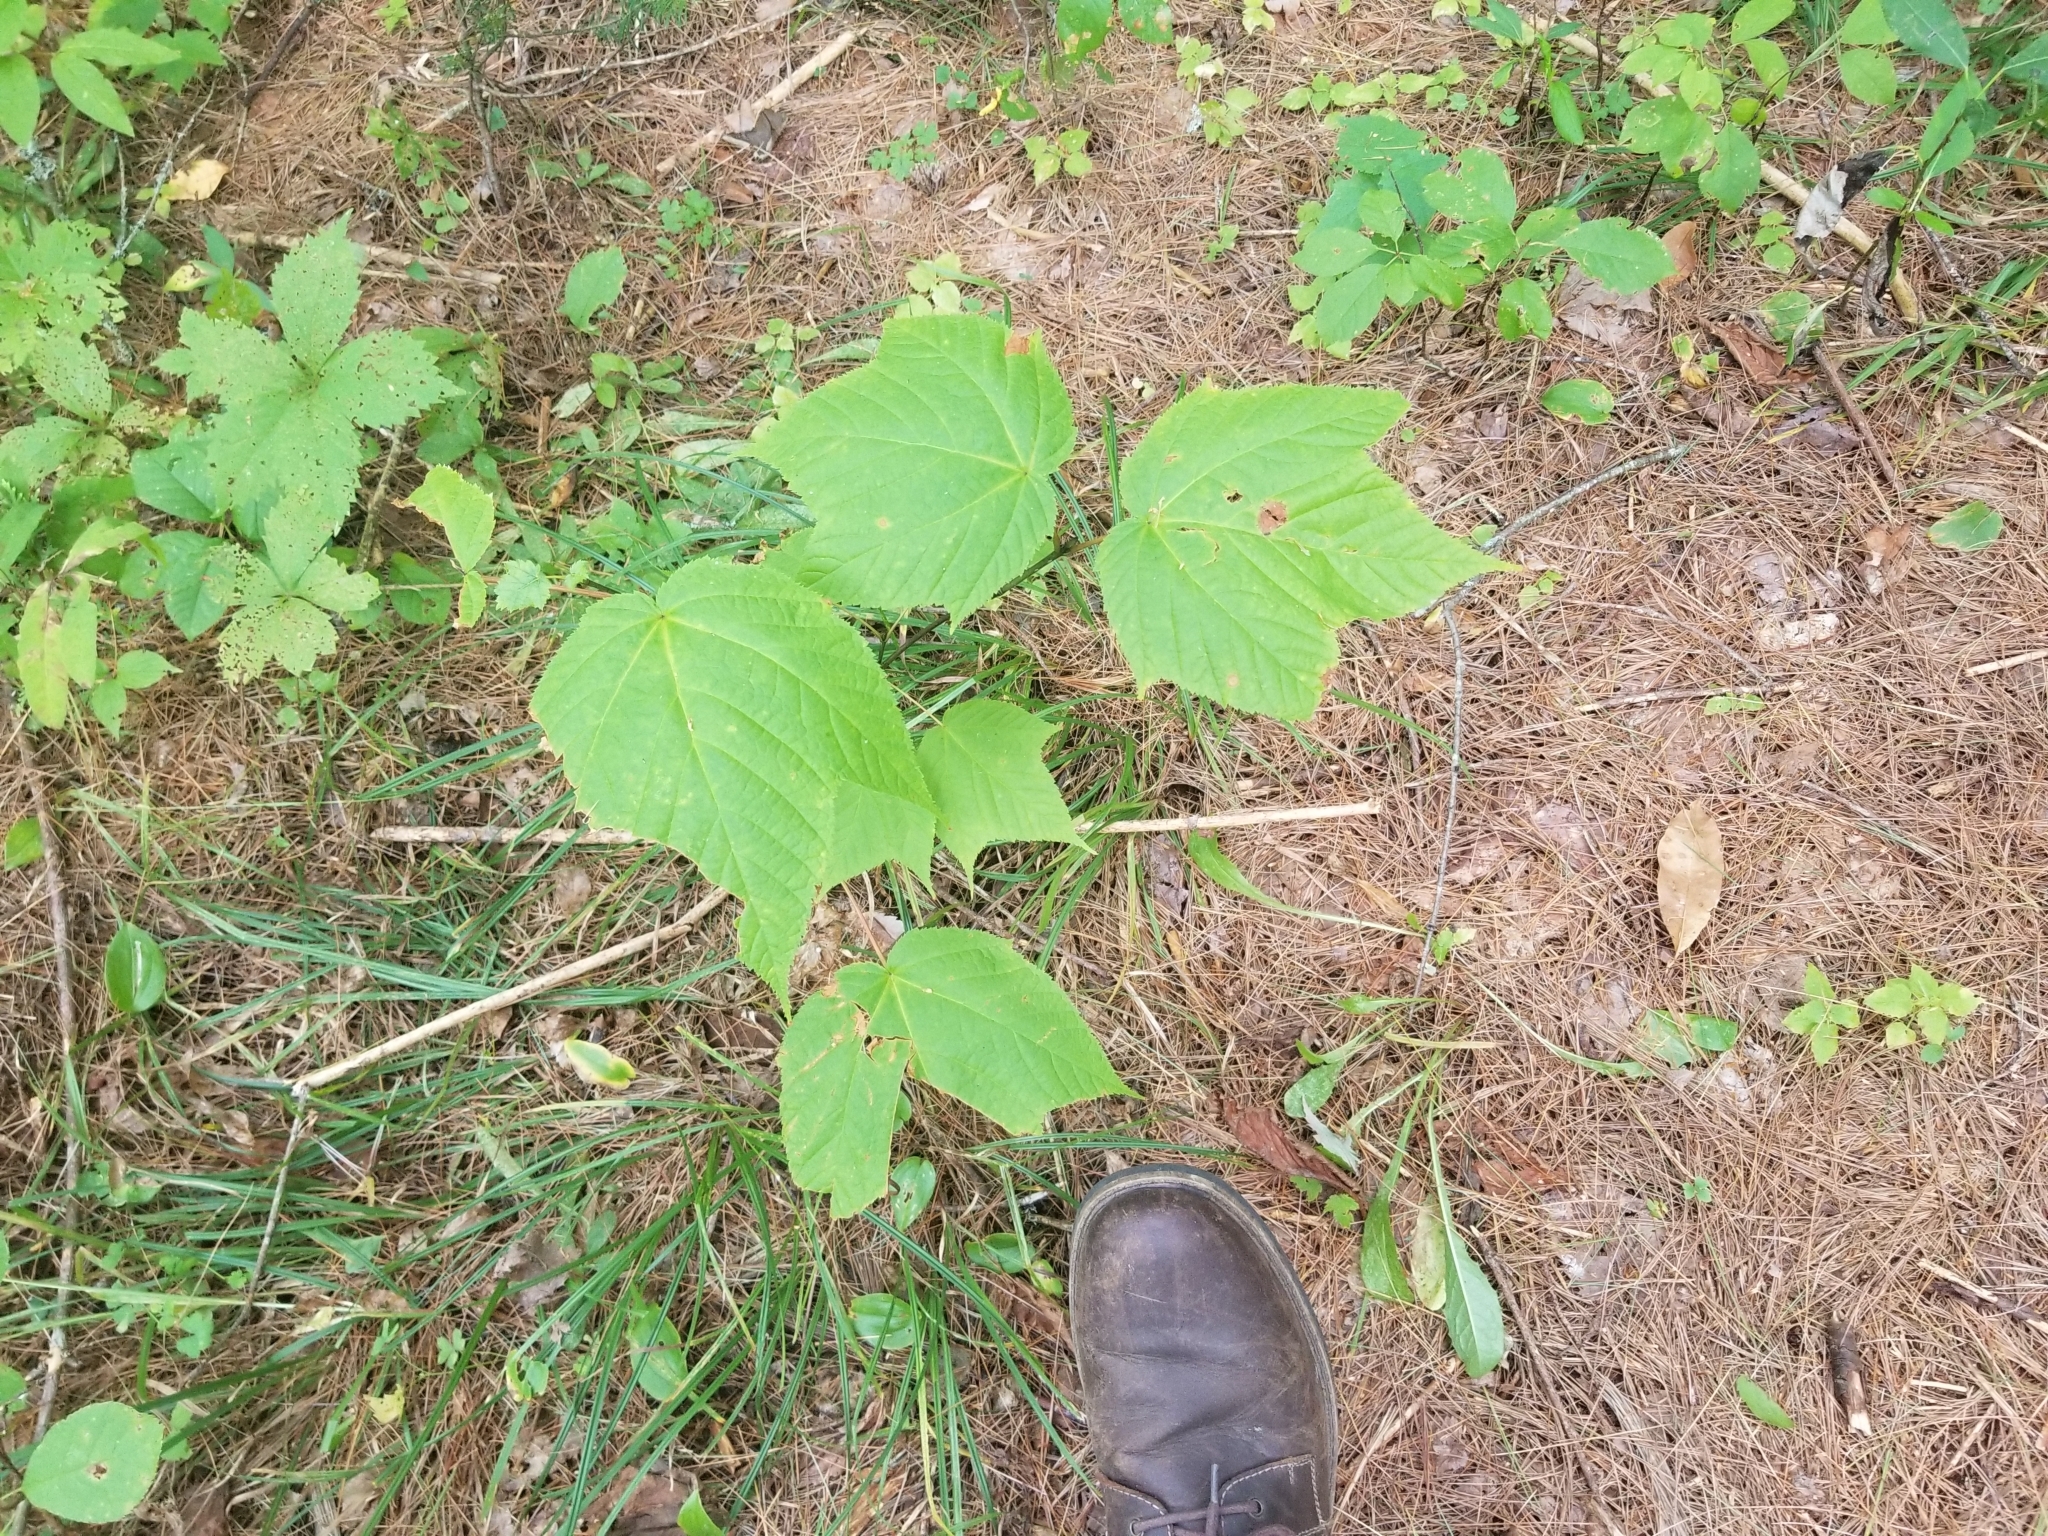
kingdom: Plantae
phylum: Tracheophyta
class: Magnoliopsida
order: Sapindales
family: Sapindaceae
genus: Acer
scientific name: Acer pensylvanicum
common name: Moosewood
